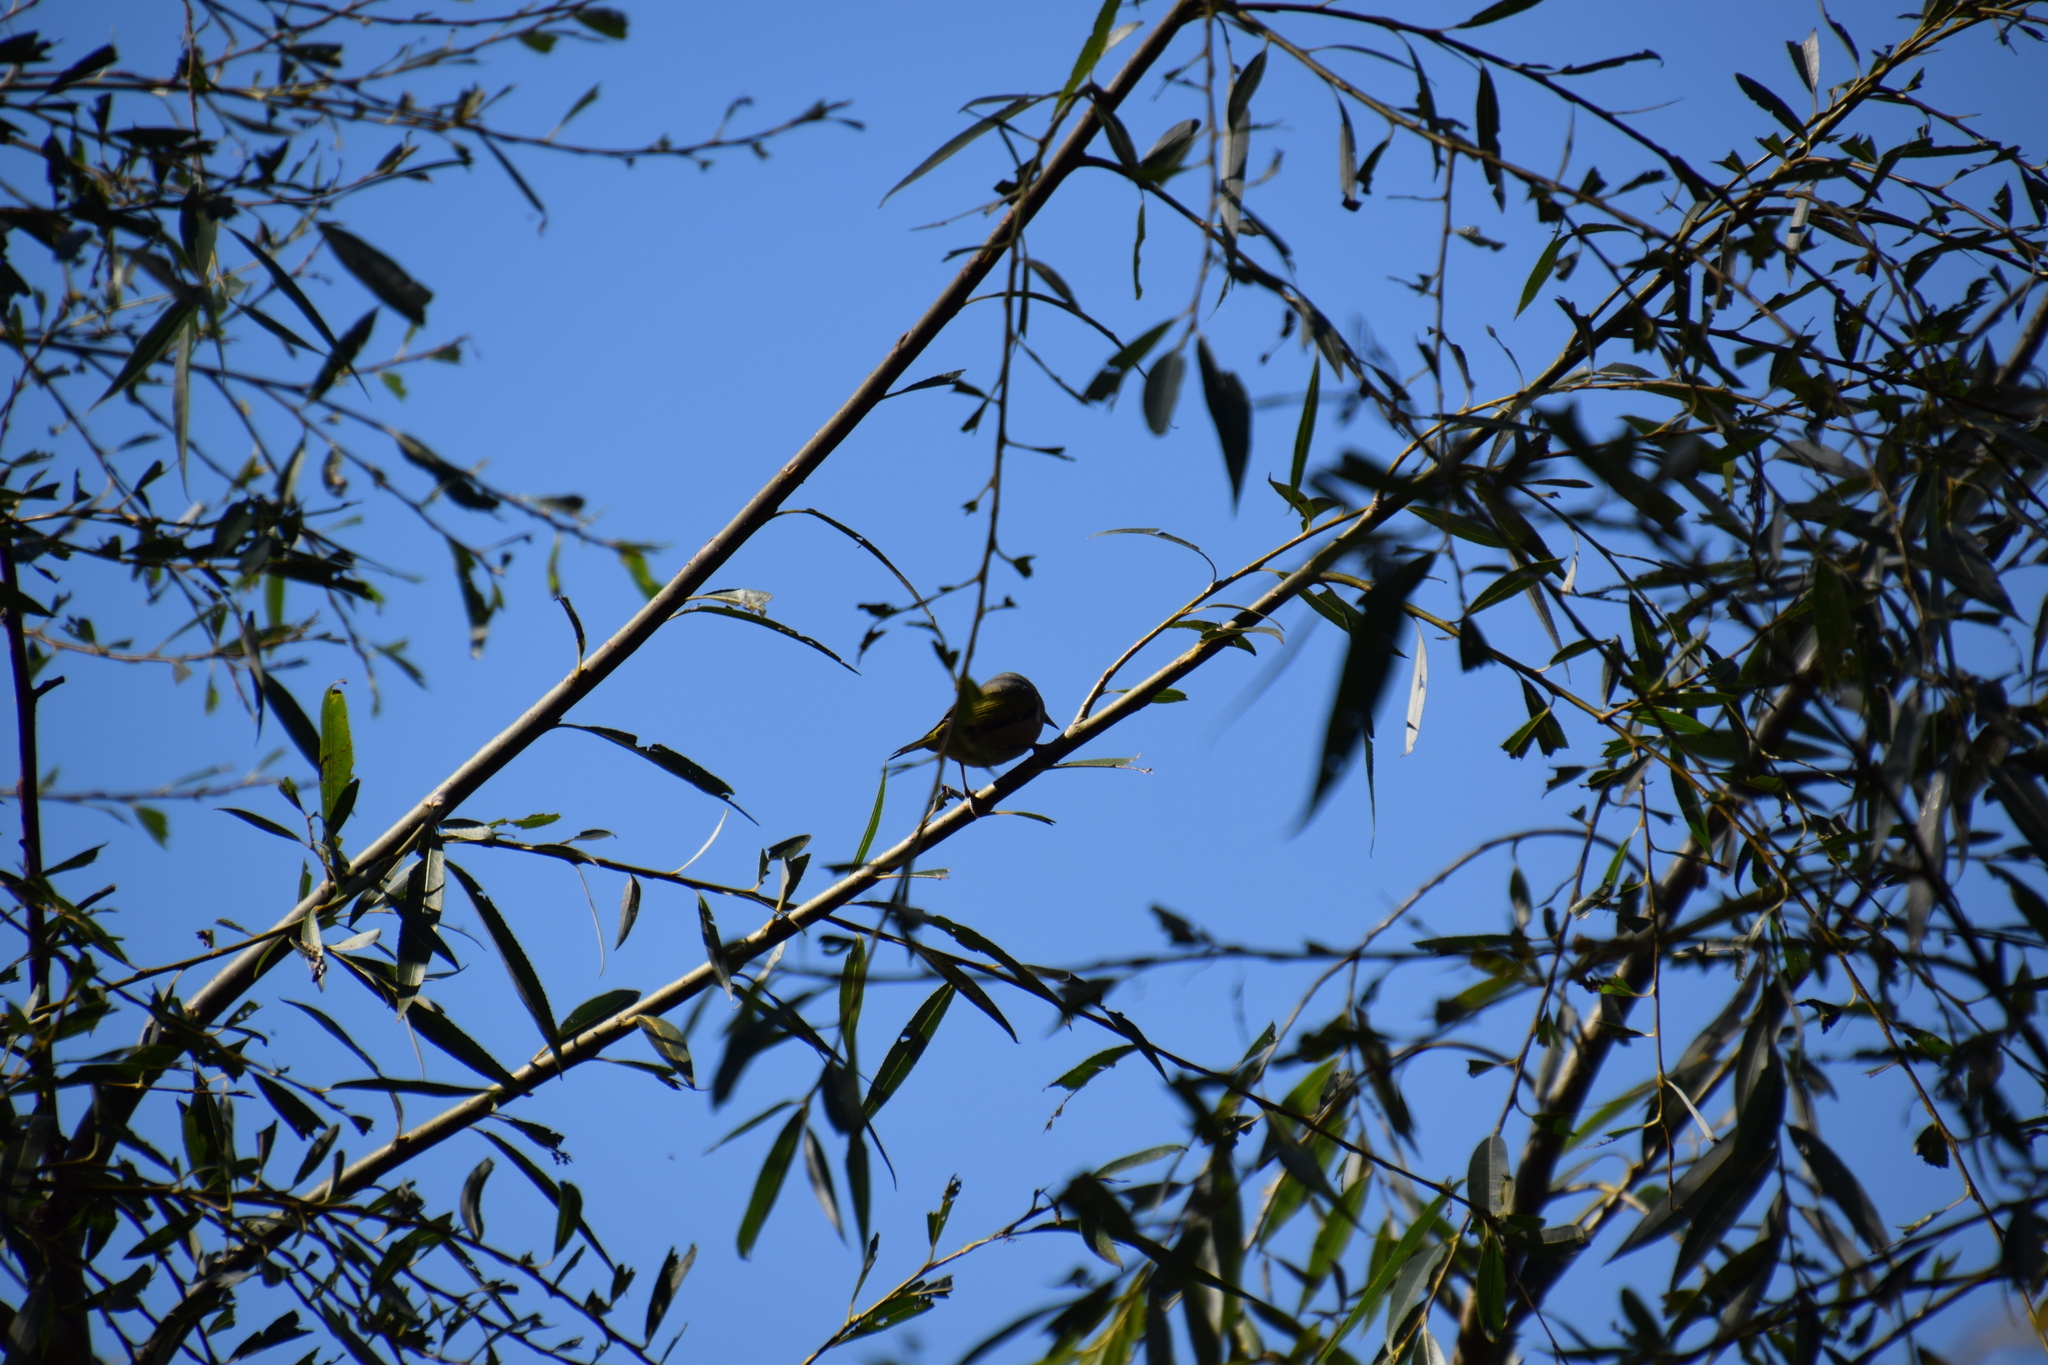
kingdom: Animalia
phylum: Chordata
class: Aves
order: Passeriformes
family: Zosteropidae
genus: Zosterops
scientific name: Zosterops lateralis
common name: Silvereye
